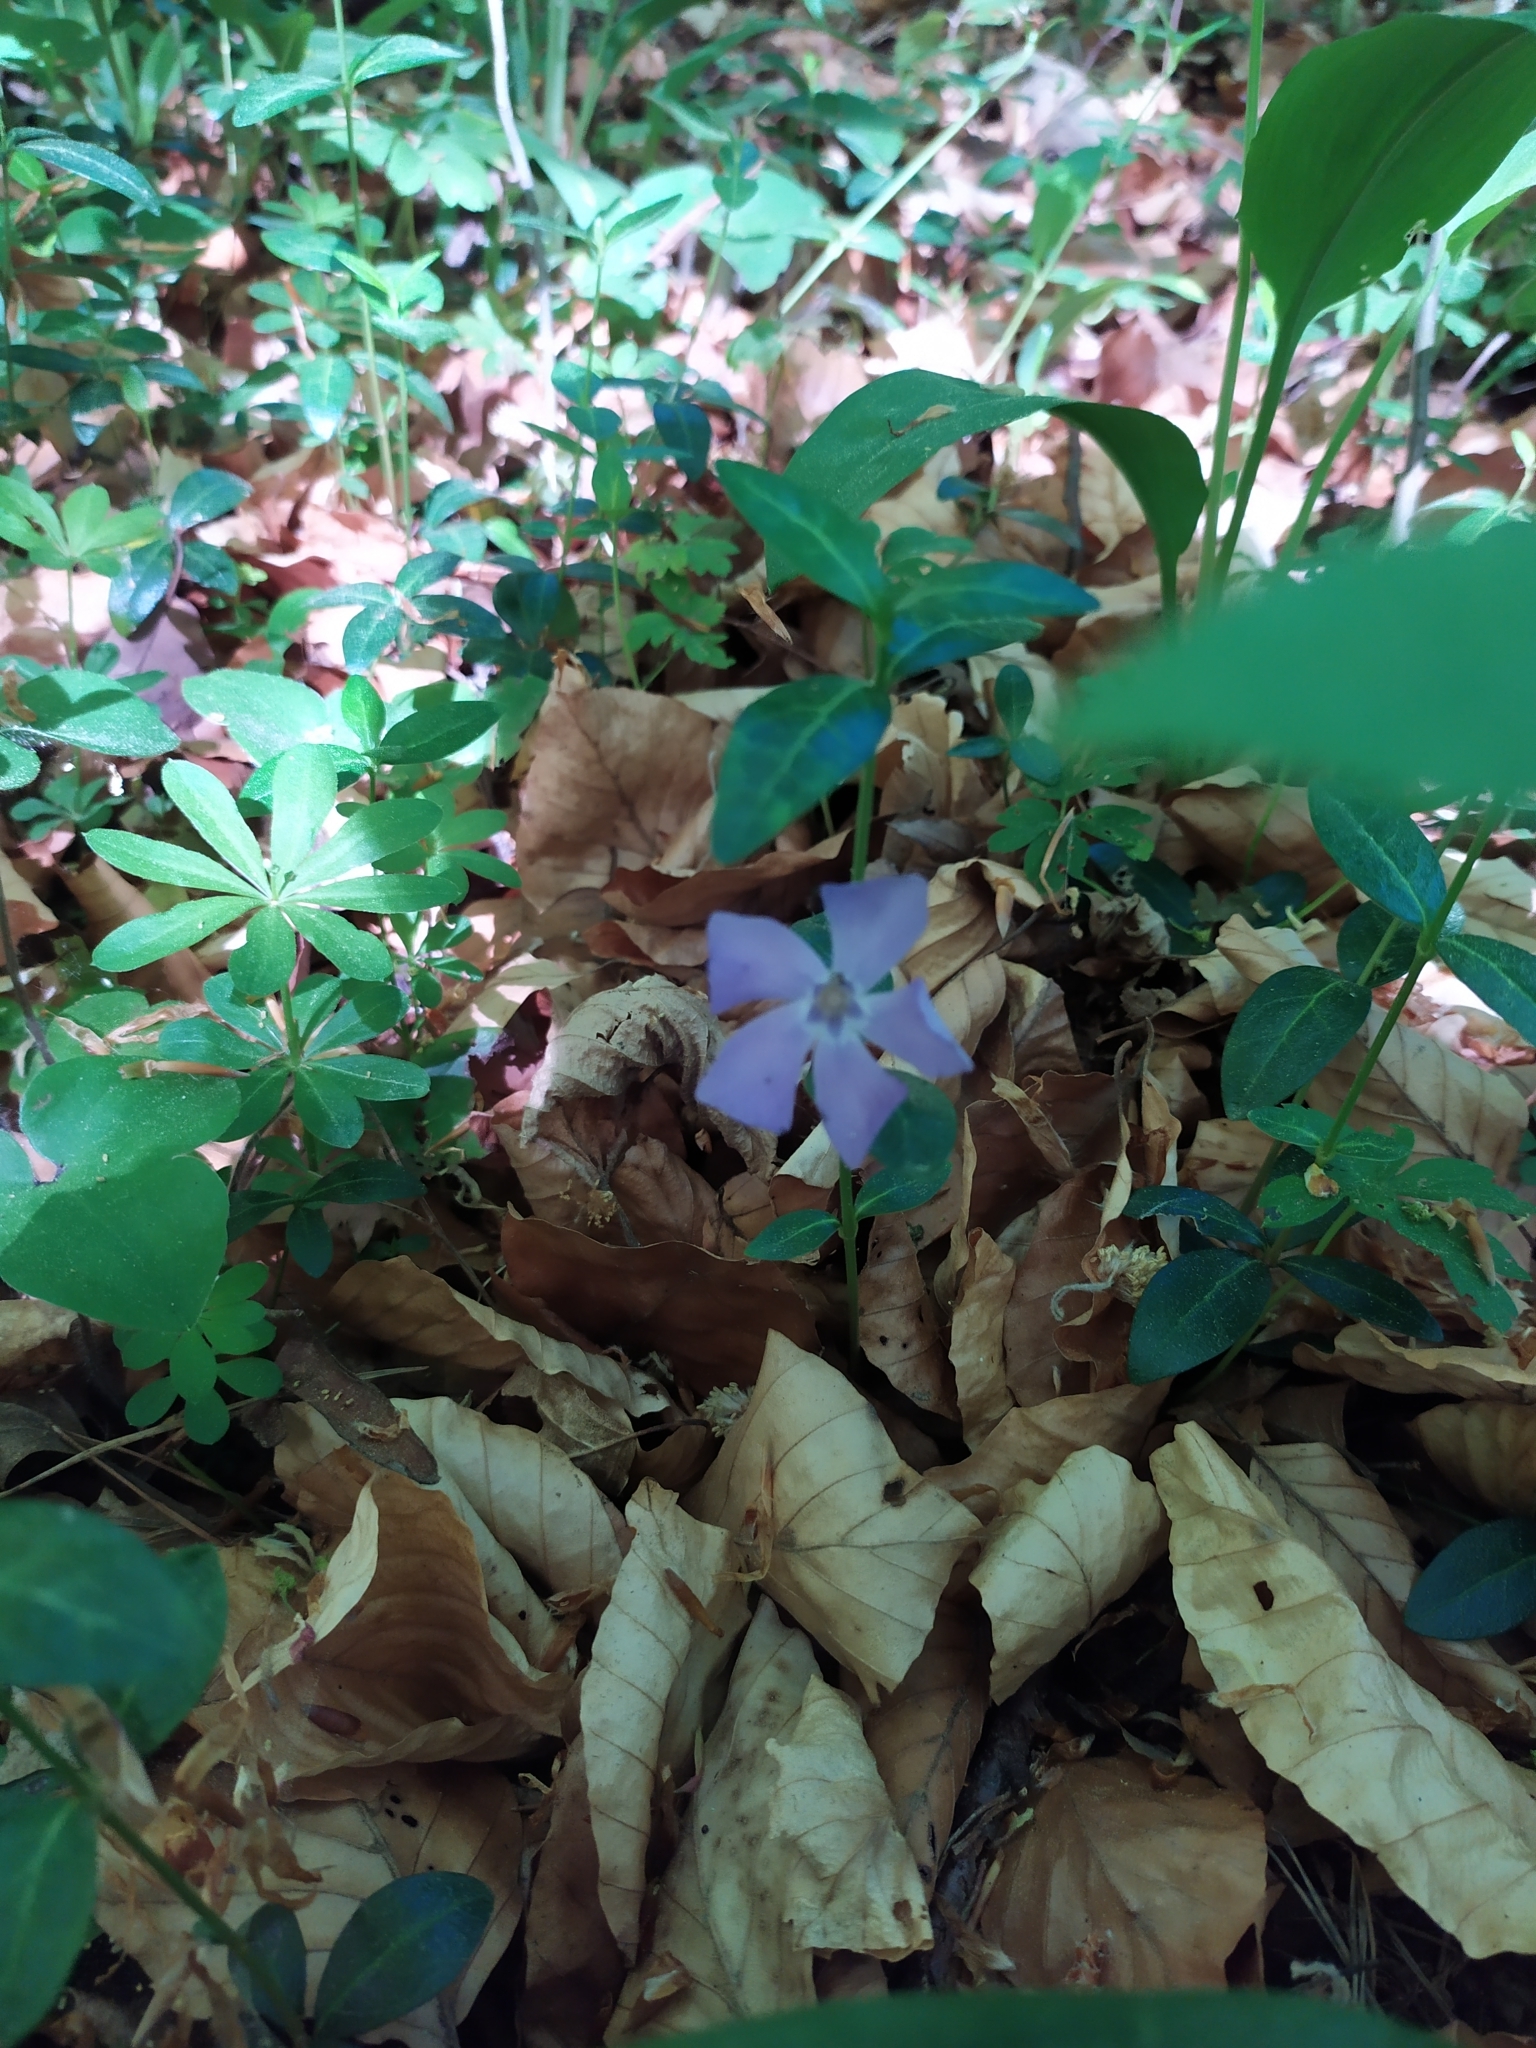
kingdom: Plantae
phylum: Tracheophyta
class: Magnoliopsida
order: Gentianales
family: Apocynaceae
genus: Vinca
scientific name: Vinca minor
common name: Lesser periwinkle
